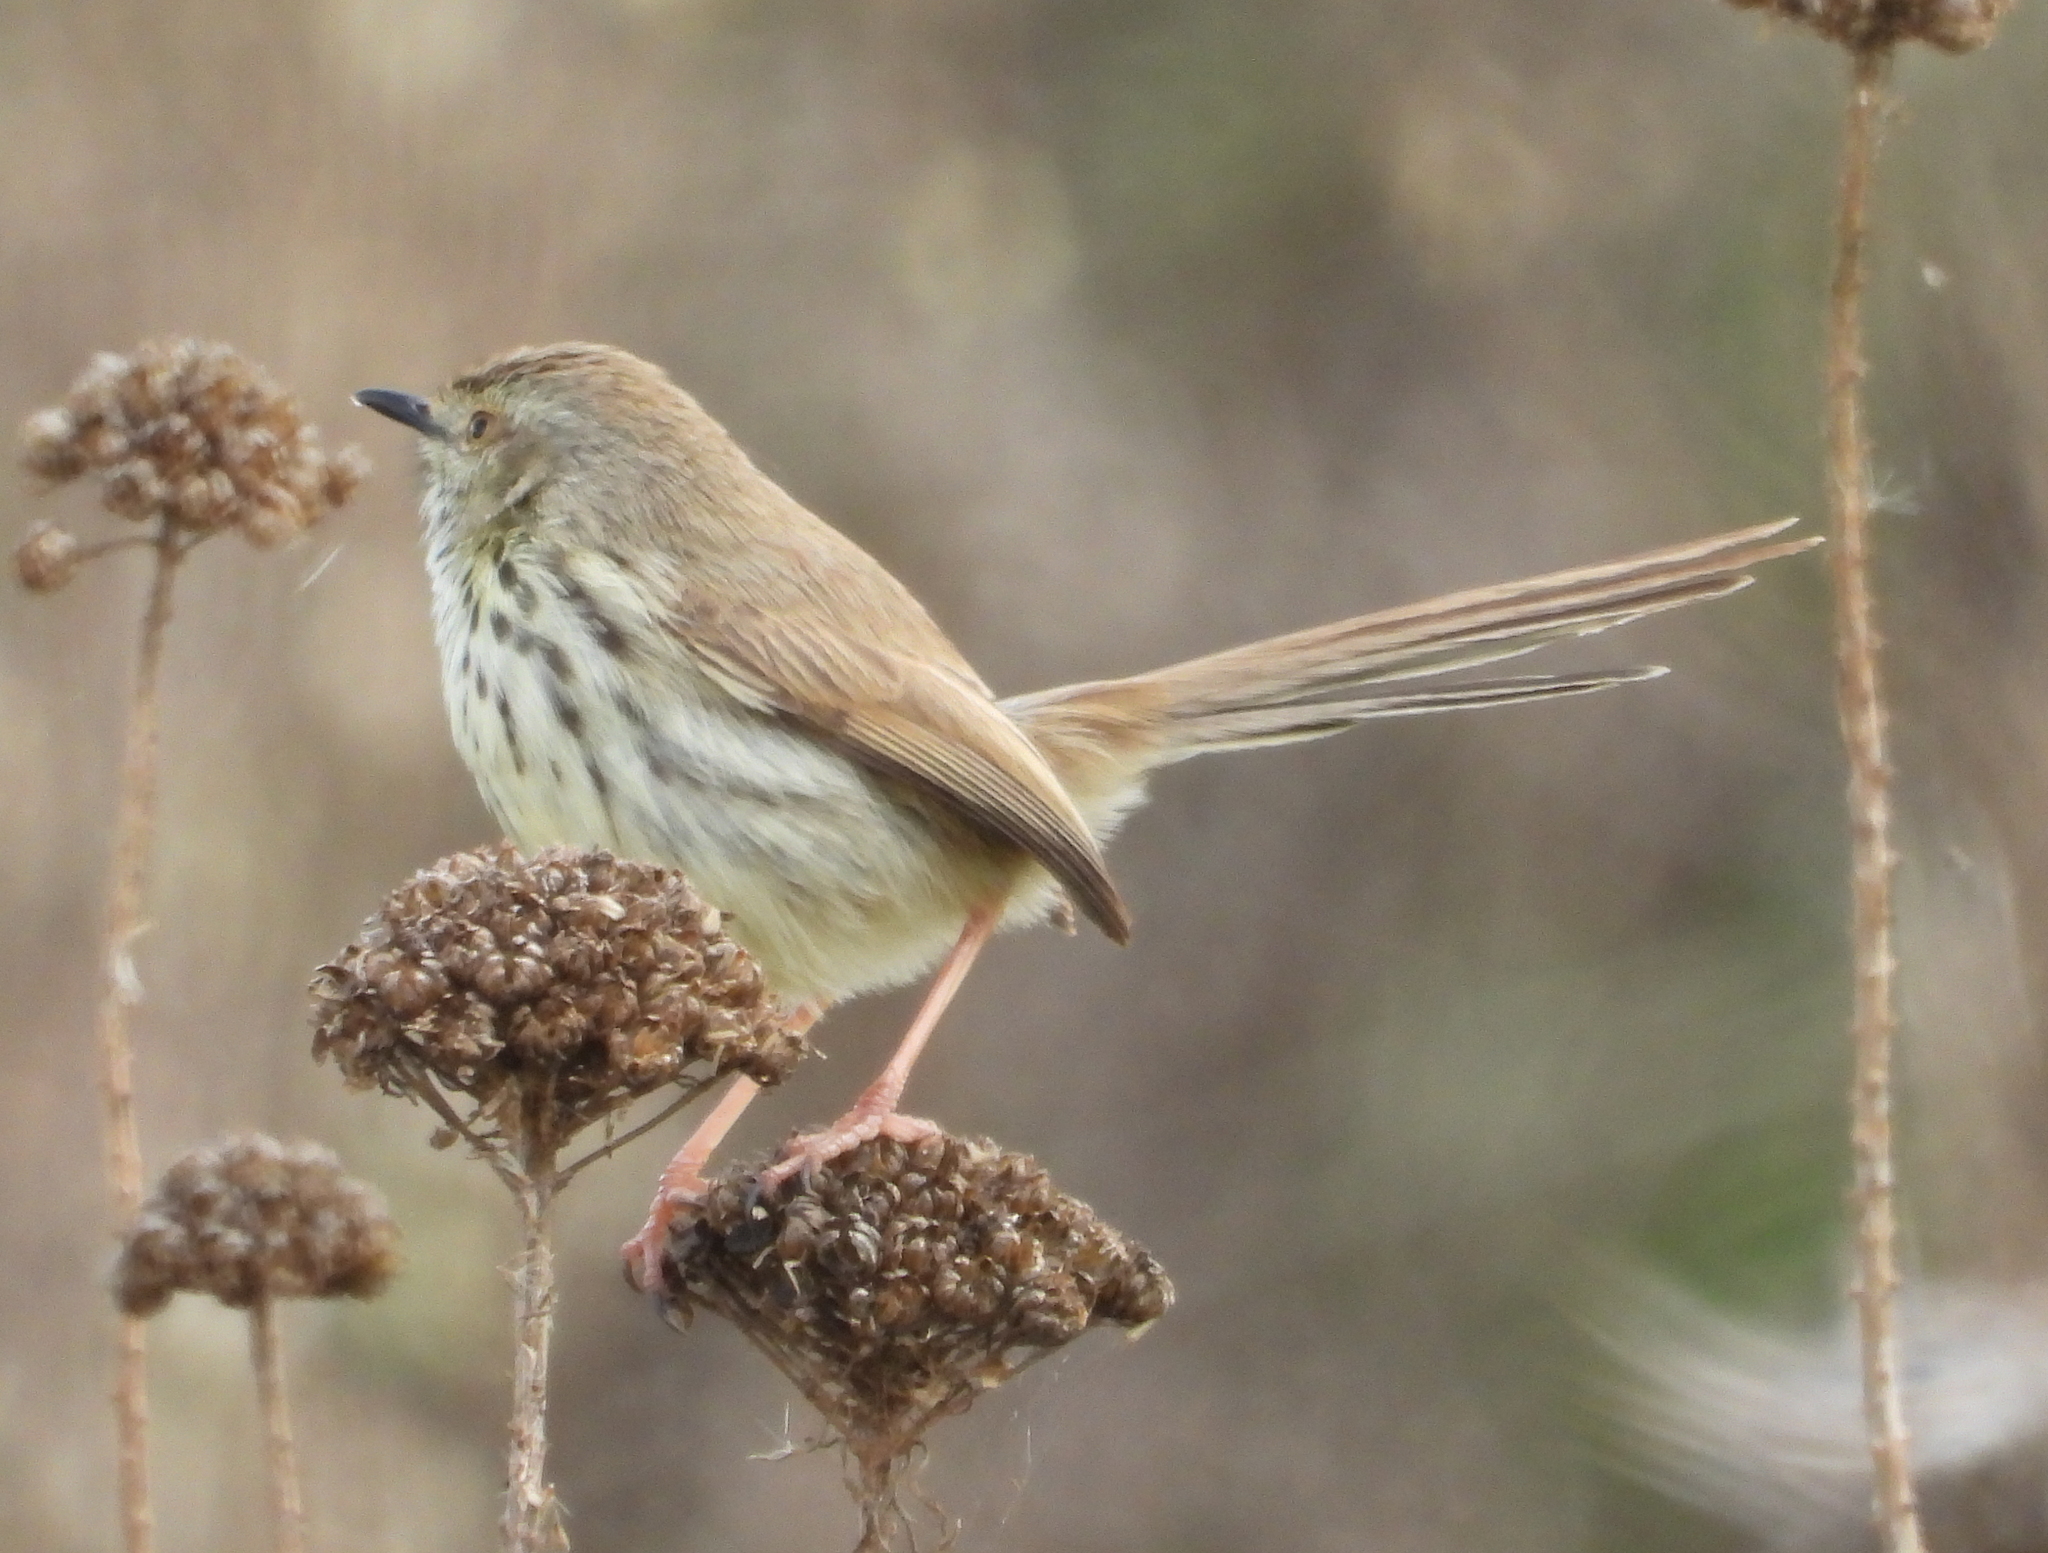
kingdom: Animalia
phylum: Chordata
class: Aves
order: Passeriformes
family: Cisticolidae
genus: Prinia
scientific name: Prinia maculosa
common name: Karoo prinia
